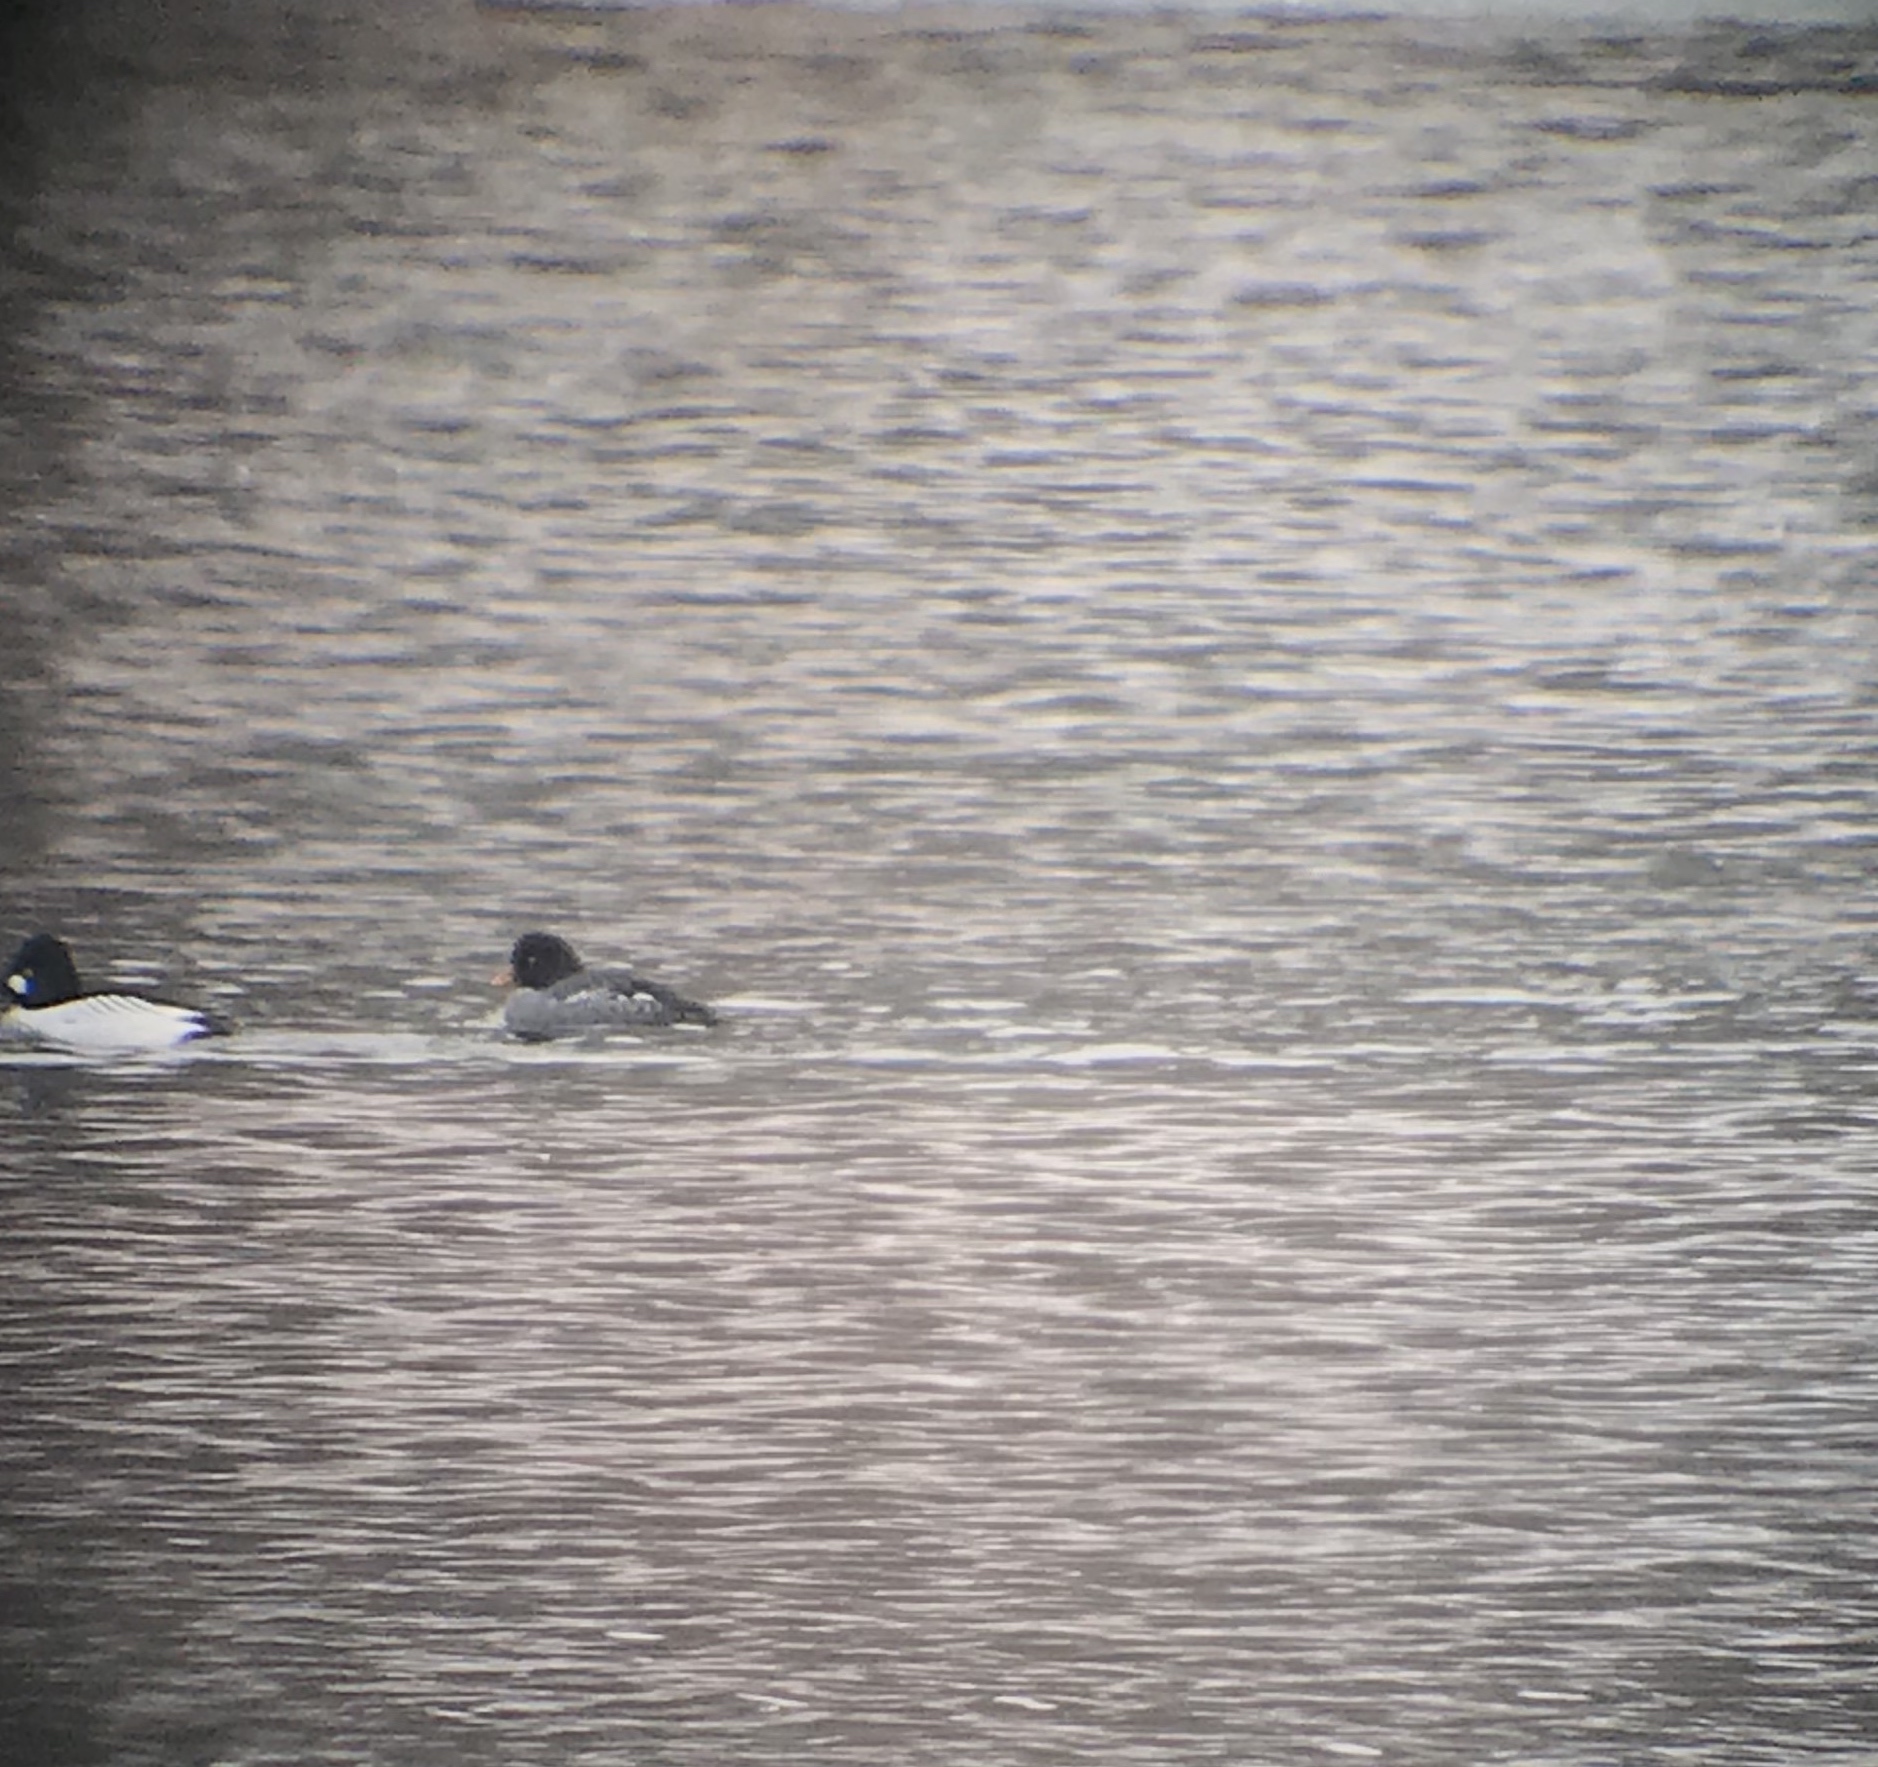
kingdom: Animalia
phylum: Chordata
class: Aves
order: Anseriformes
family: Anatidae
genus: Bucephala
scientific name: Bucephala islandica
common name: Barrow's goldeneye
